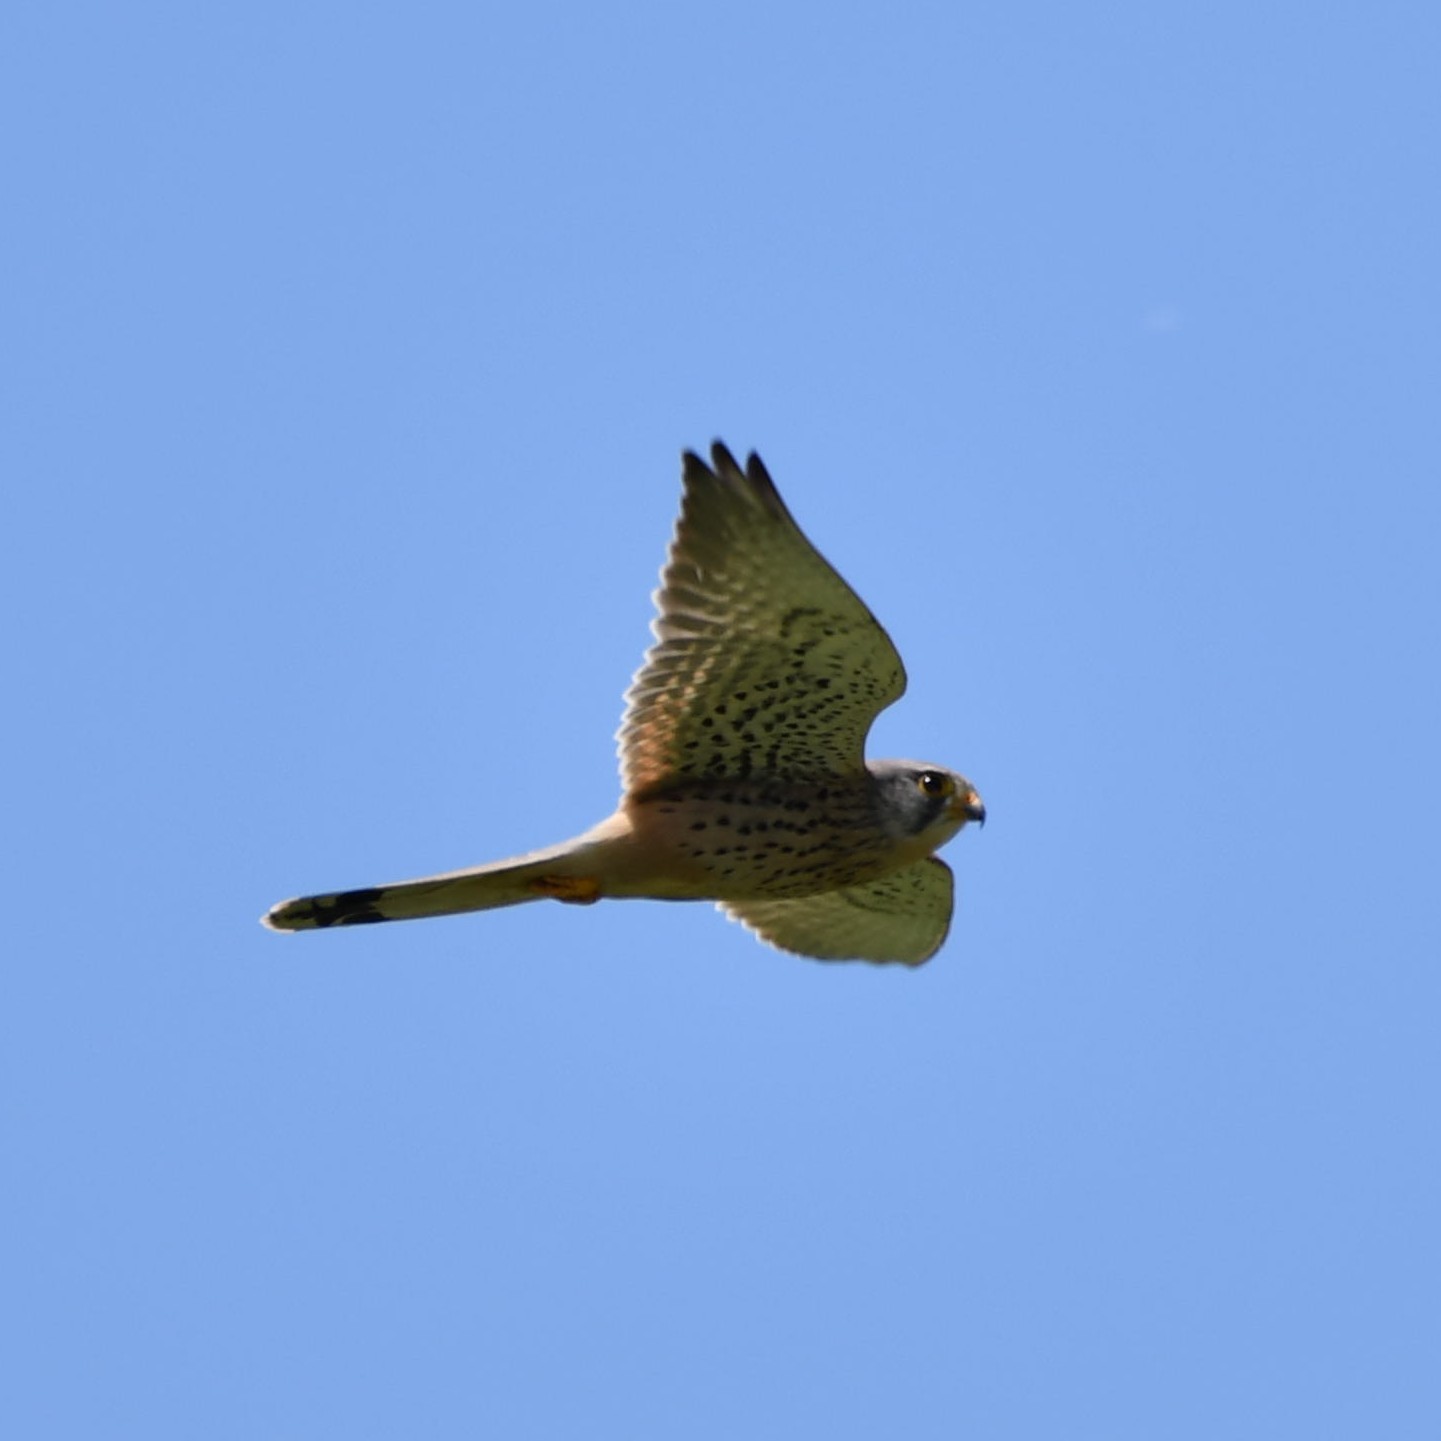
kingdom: Animalia
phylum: Chordata
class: Aves
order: Falconiformes
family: Falconidae
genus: Falco
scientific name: Falco tinnunculus
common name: Common kestrel
